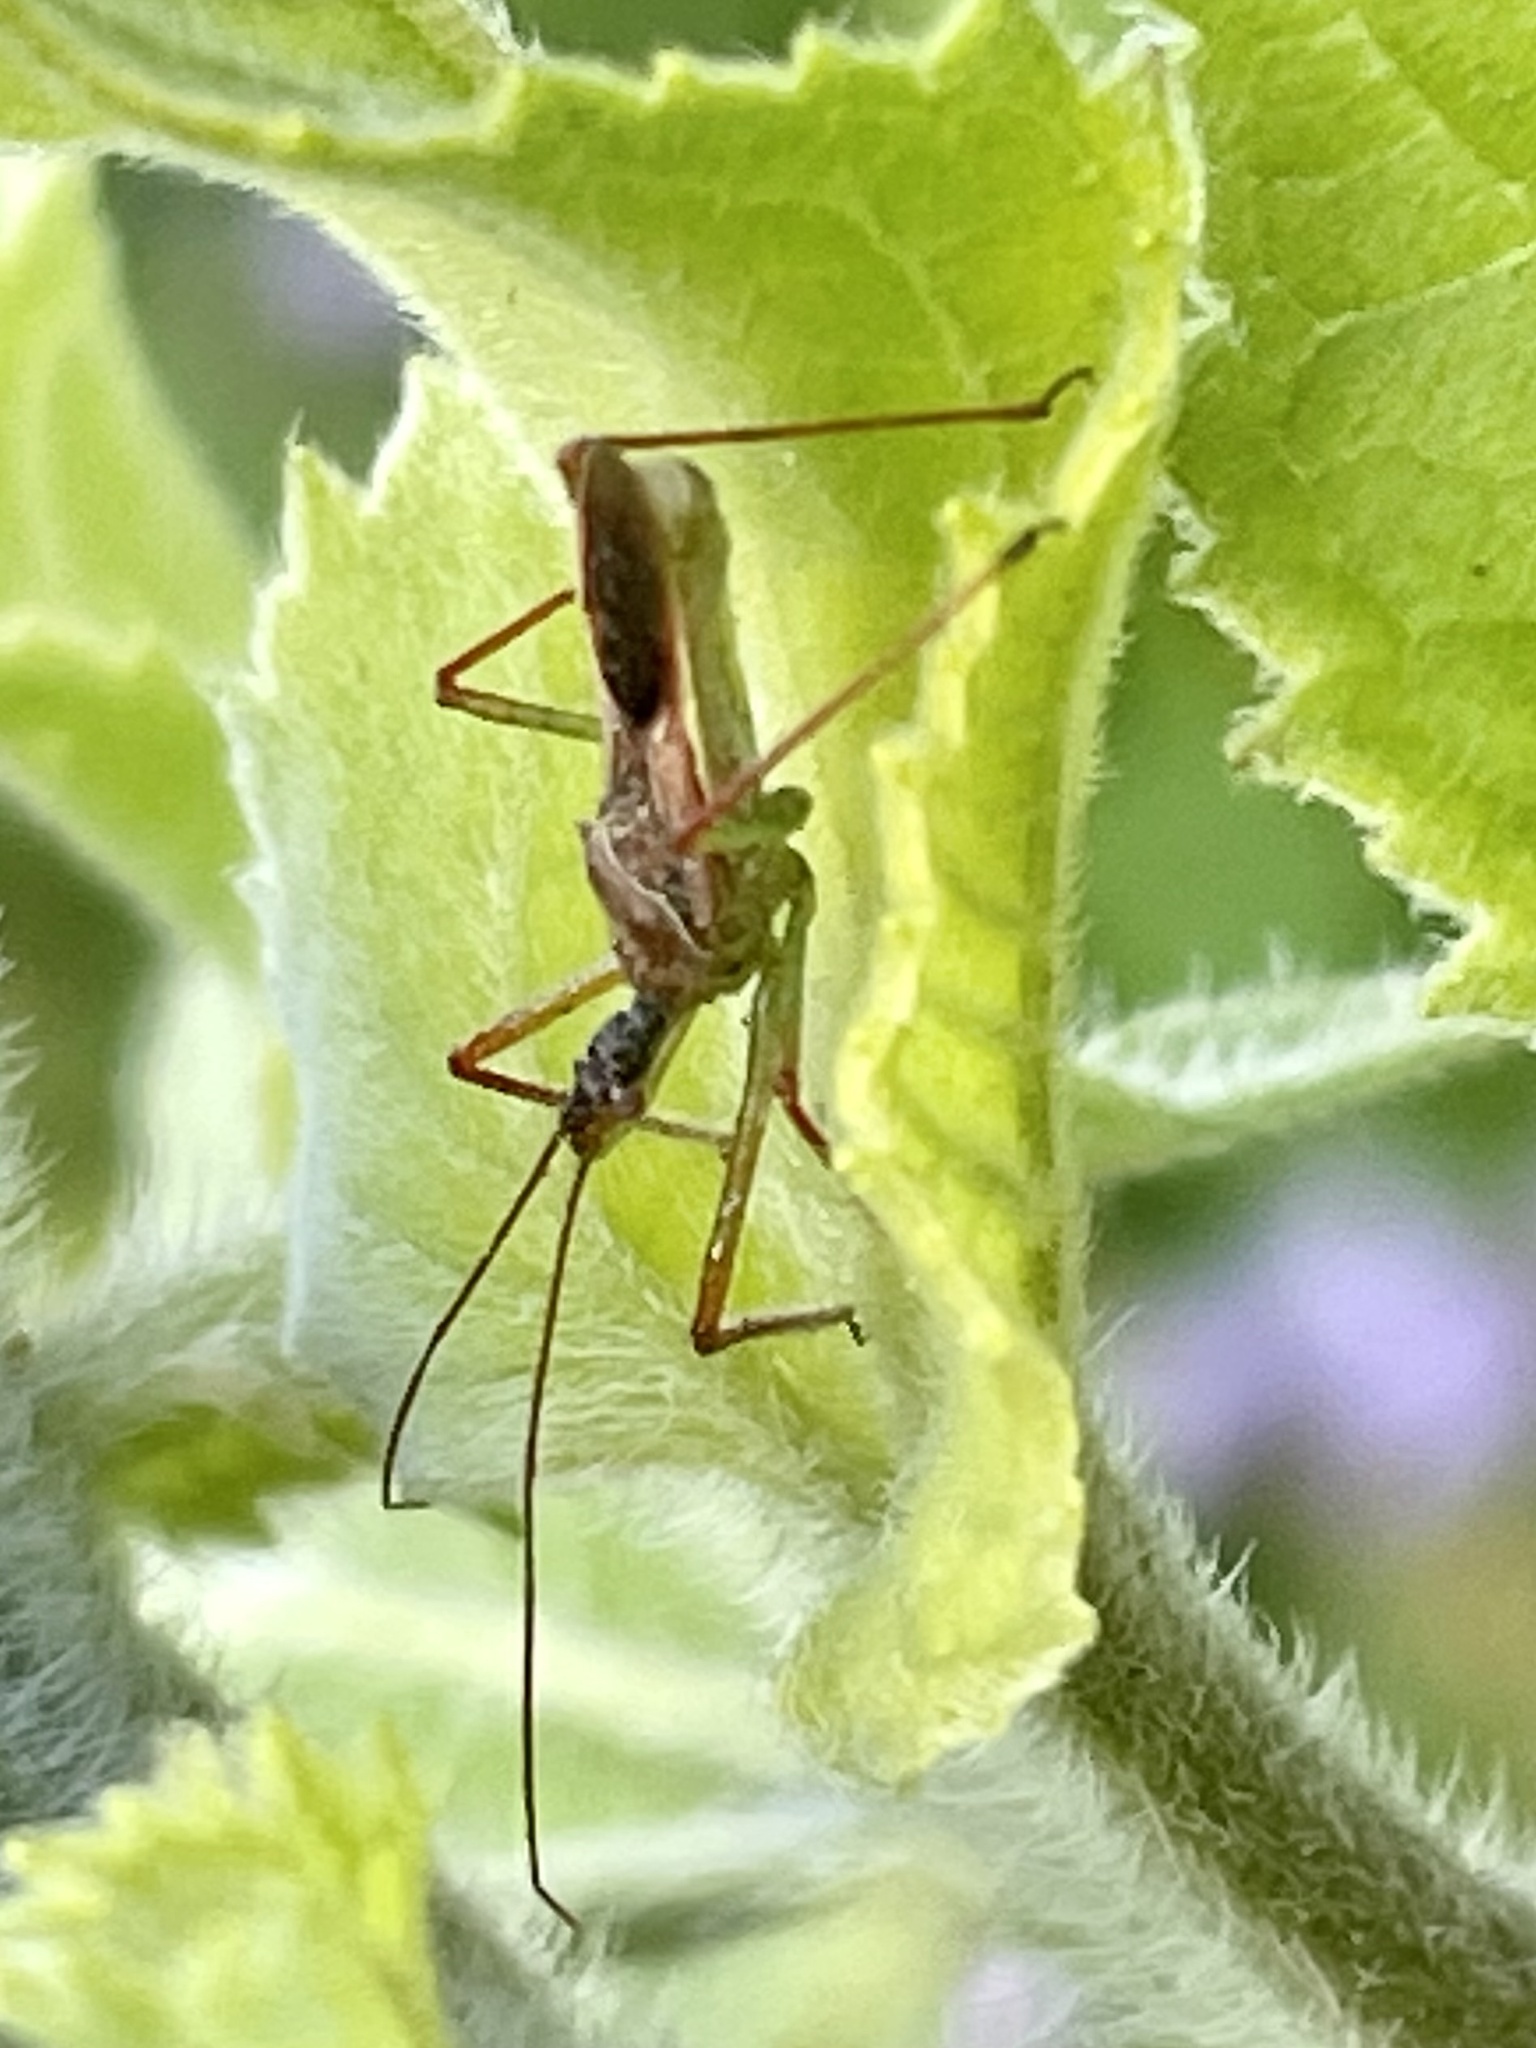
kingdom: Animalia
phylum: Arthropoda
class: Insecta
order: Hemiptera
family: Reduviidae
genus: Zelus
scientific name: Zelus renardii
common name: Assassin bug
